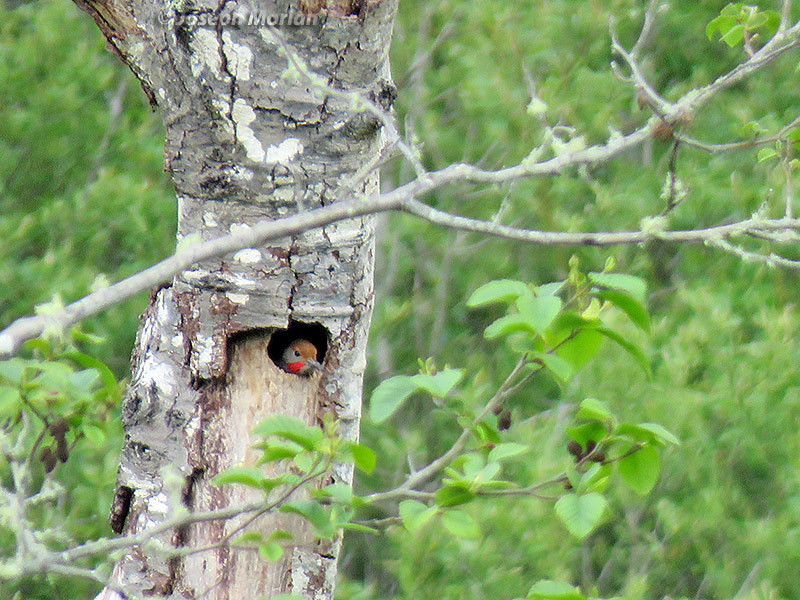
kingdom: Animalia
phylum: Chordata
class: Aves
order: Piciformes
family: Picidae
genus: Colaptes
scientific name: Colaptes auratus
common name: Northern flicker
